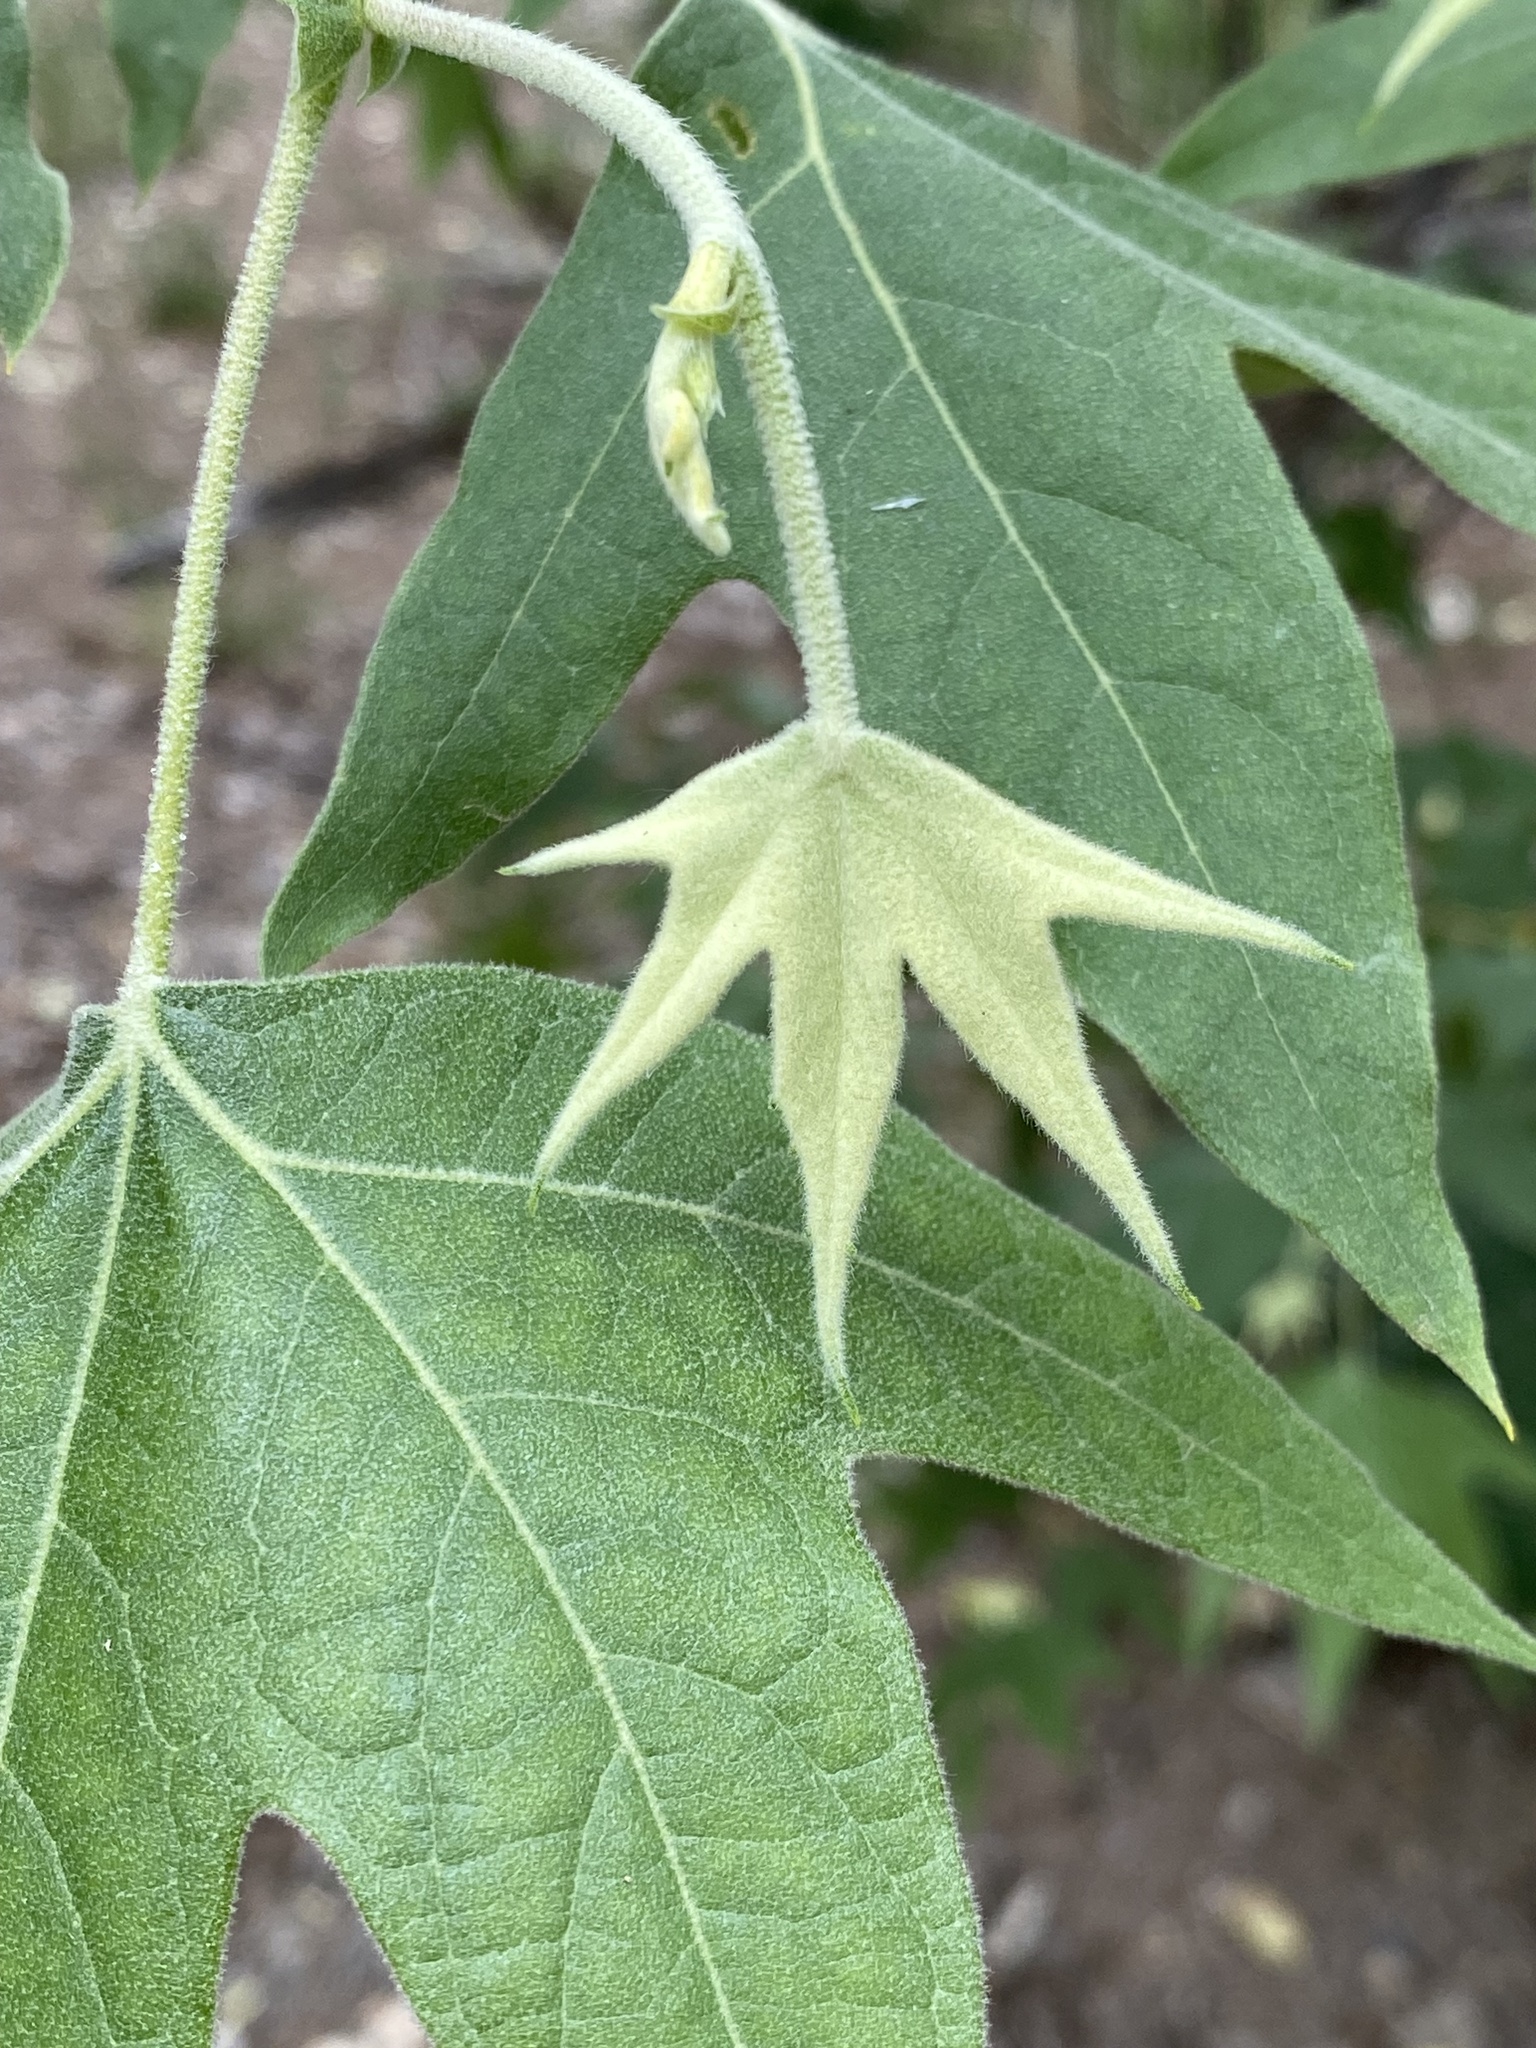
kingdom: Plantae
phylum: Tracheophyta
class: Magnoliopsida
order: Proteales
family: Platanaceae
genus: Platanus
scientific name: Platanus wrightii
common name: Arizona sycamore
